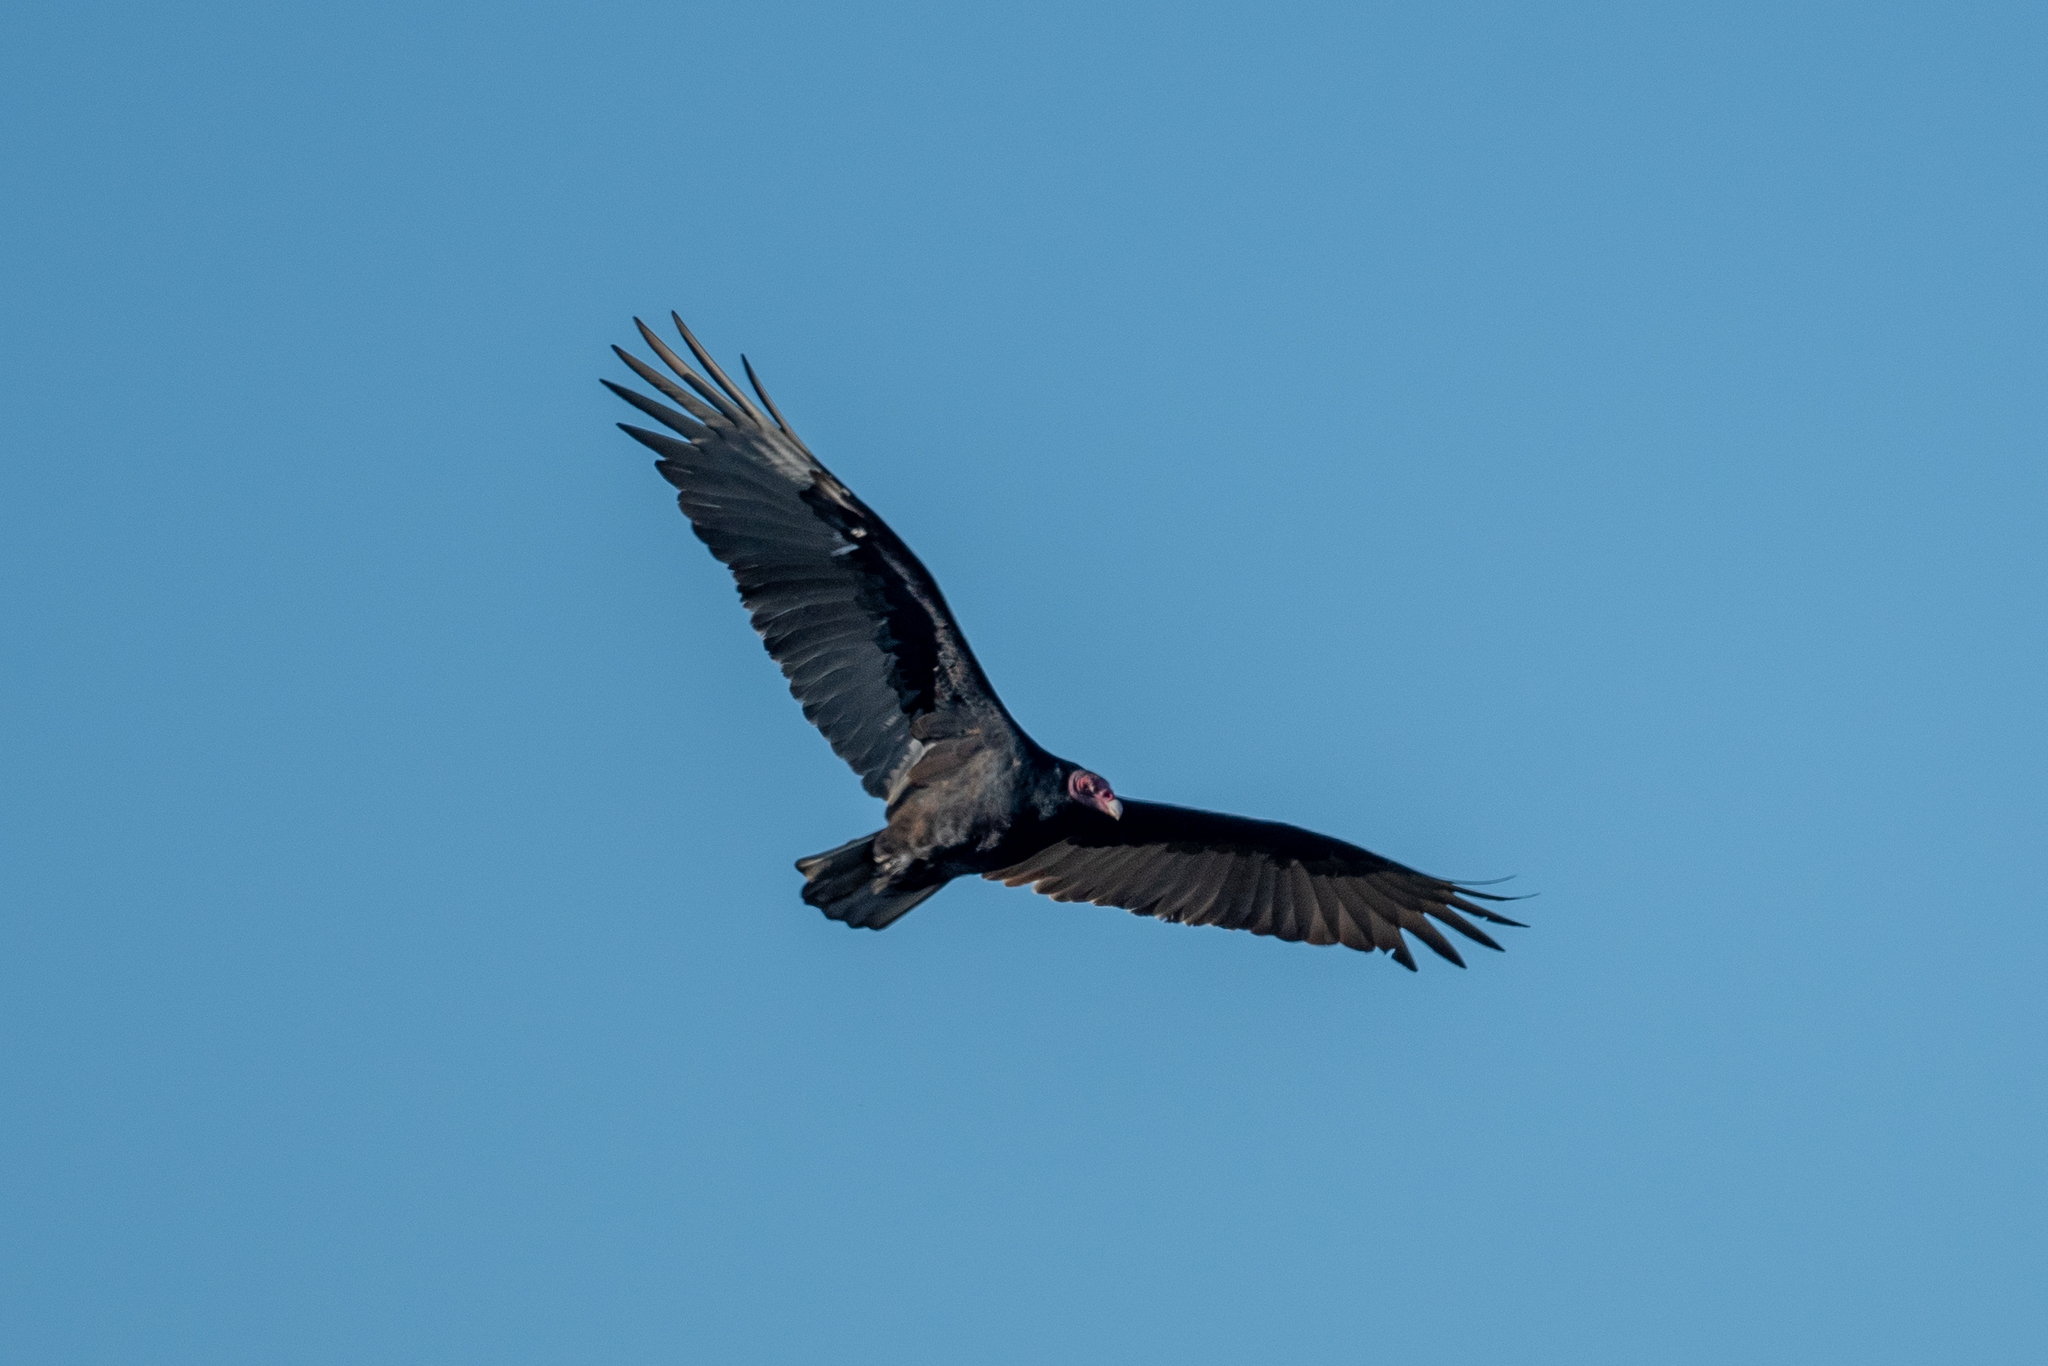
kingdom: Animalia
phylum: Chordata
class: Aves
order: Accipitriformes
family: Cathartidae
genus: Cathartes
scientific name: Cathartes aura
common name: Turkey vulture
